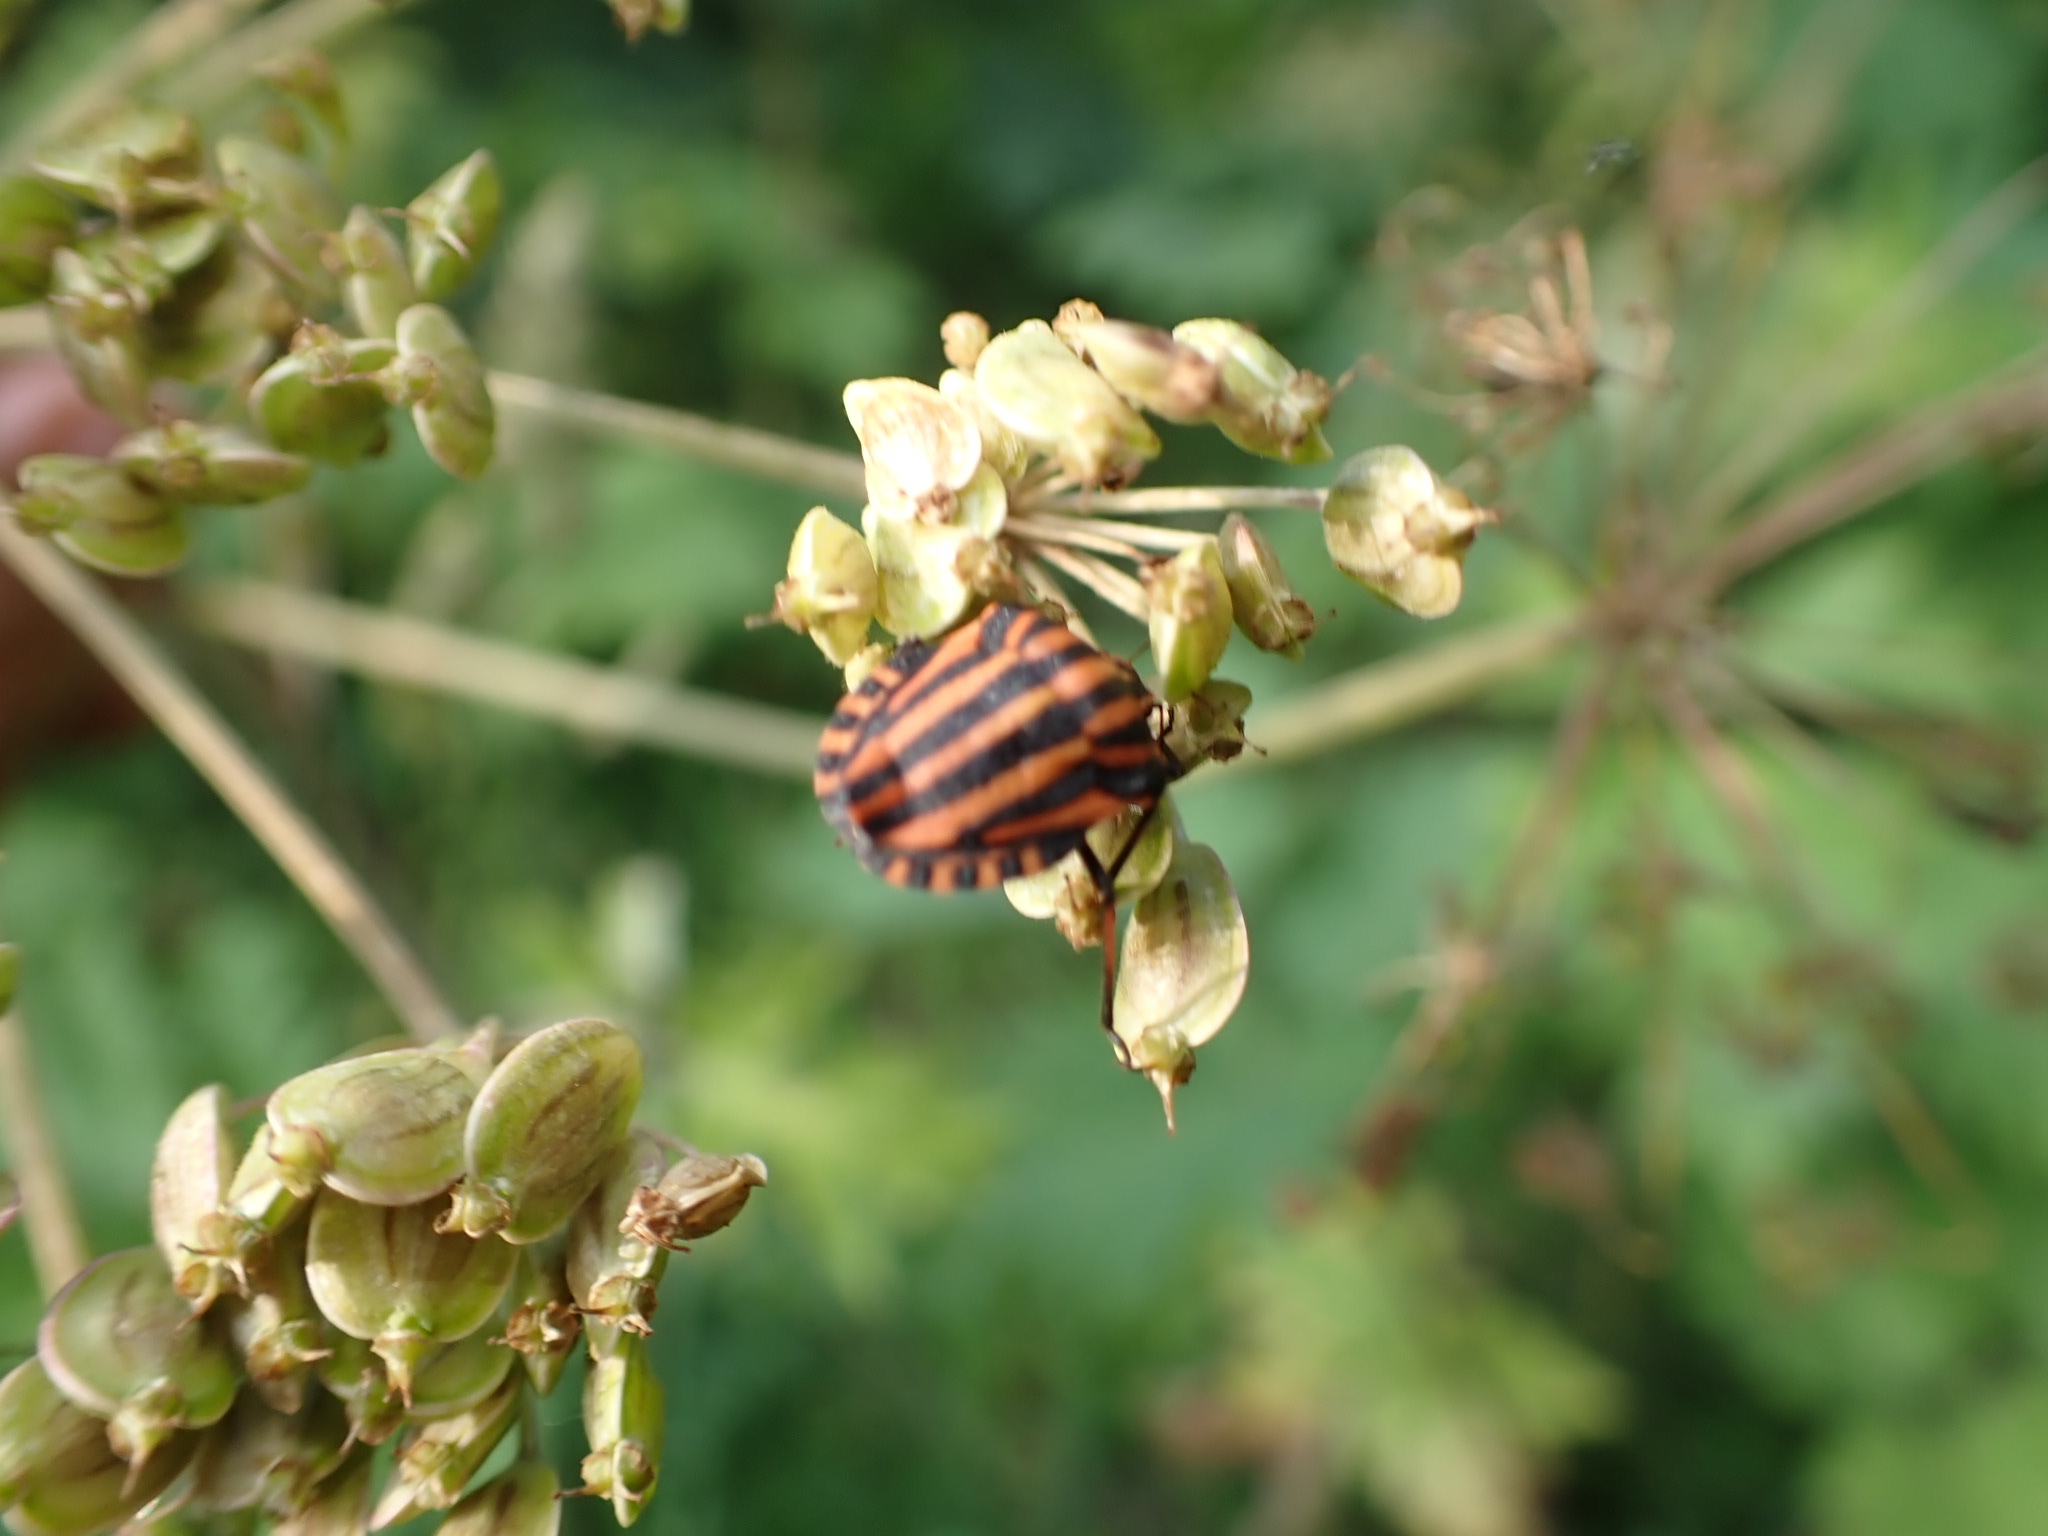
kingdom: Animalia
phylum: Arthropoda
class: Insecta
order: Hemiptera
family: Pentatomidae
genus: Graphosoma
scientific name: Graphosoma italicum
